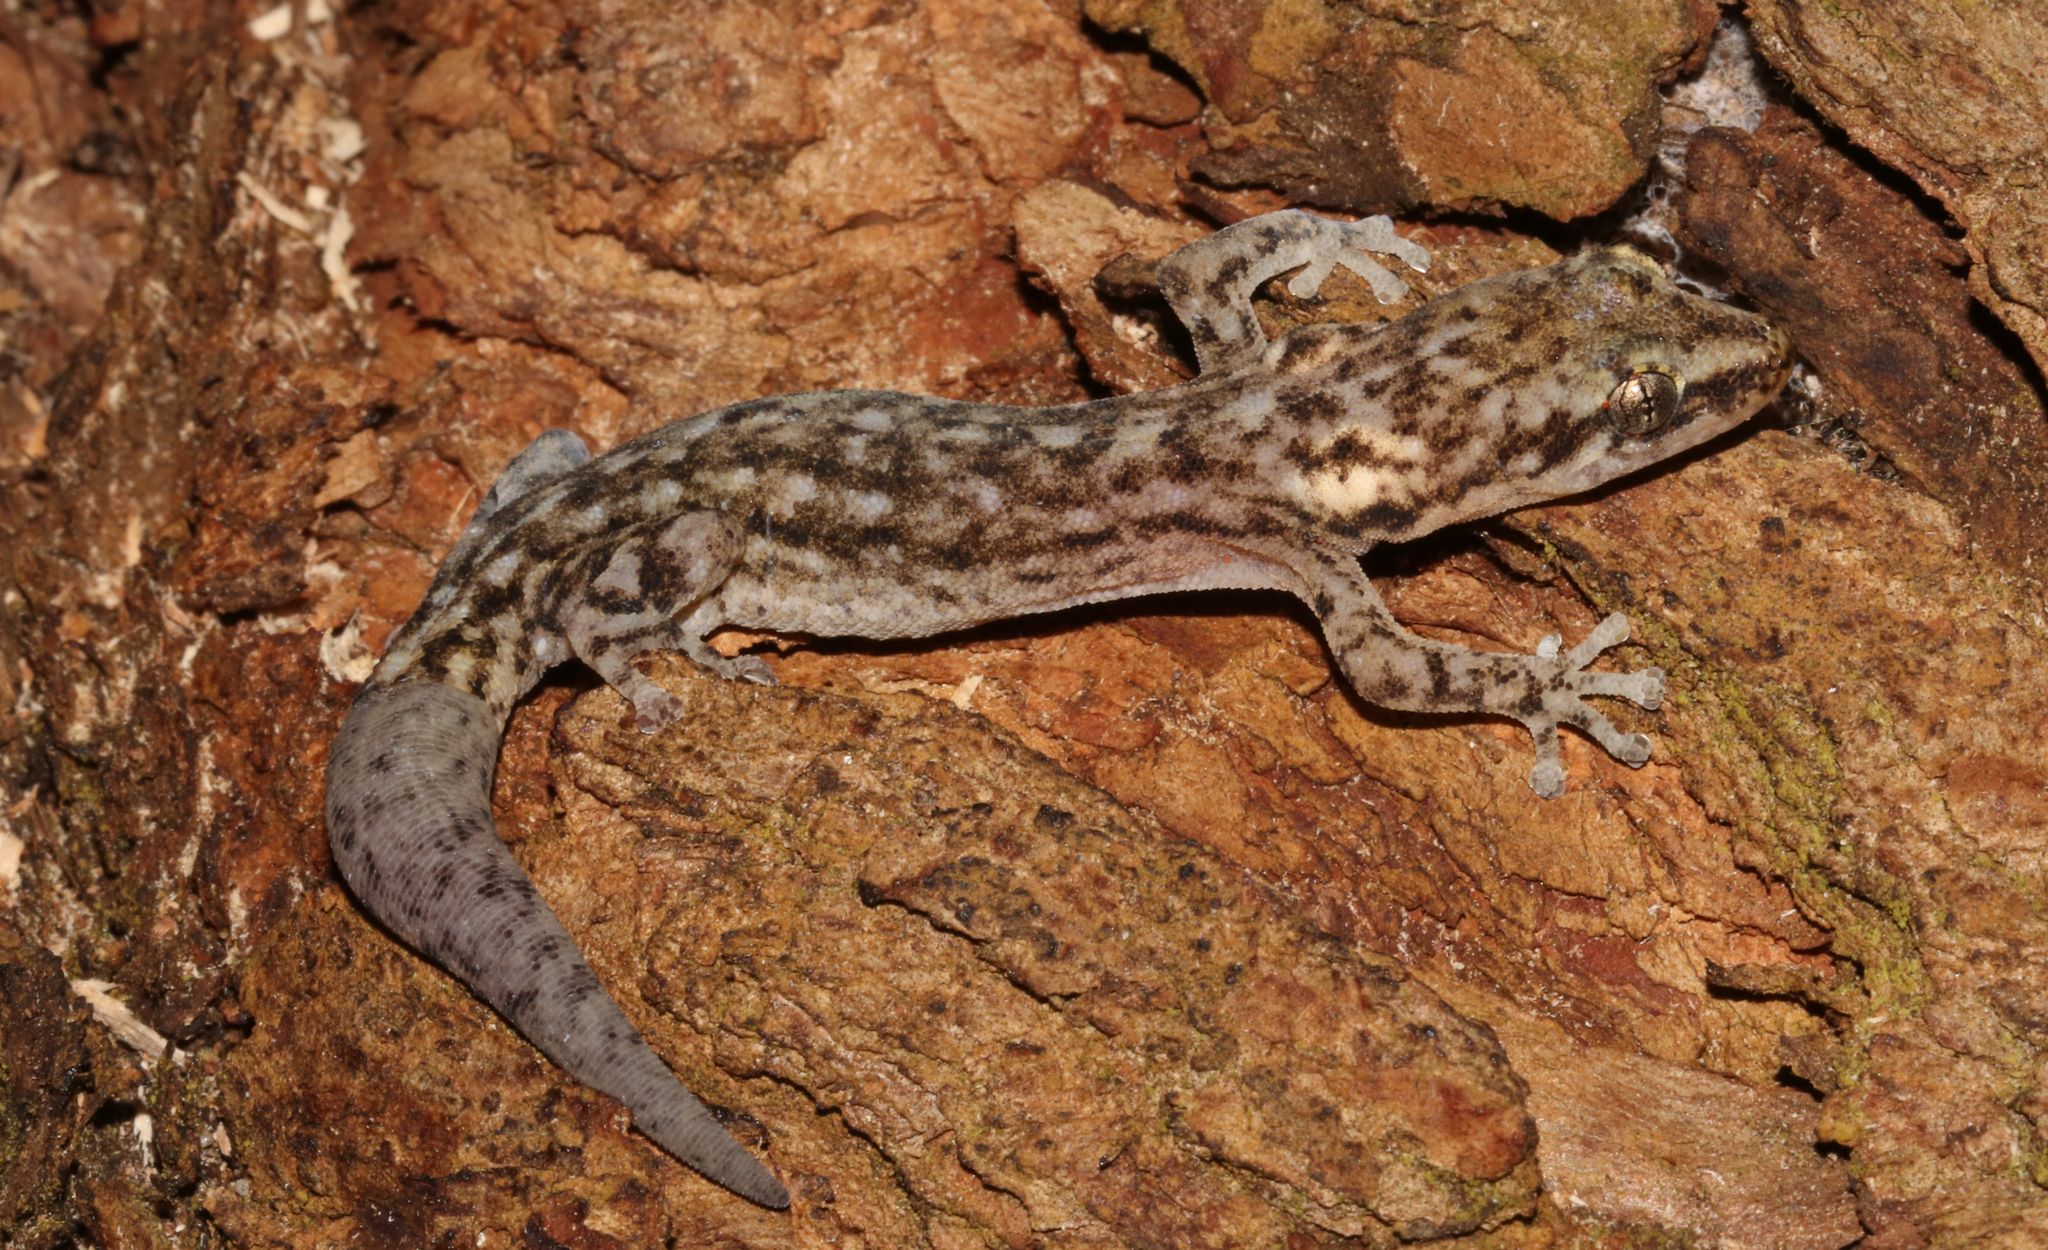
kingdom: Animalia
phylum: Chordata
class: Squamata
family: Gekkonidae
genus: Afrogecko
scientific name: Afrogecko porphyreus
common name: Marbled leaf-toed gecko
